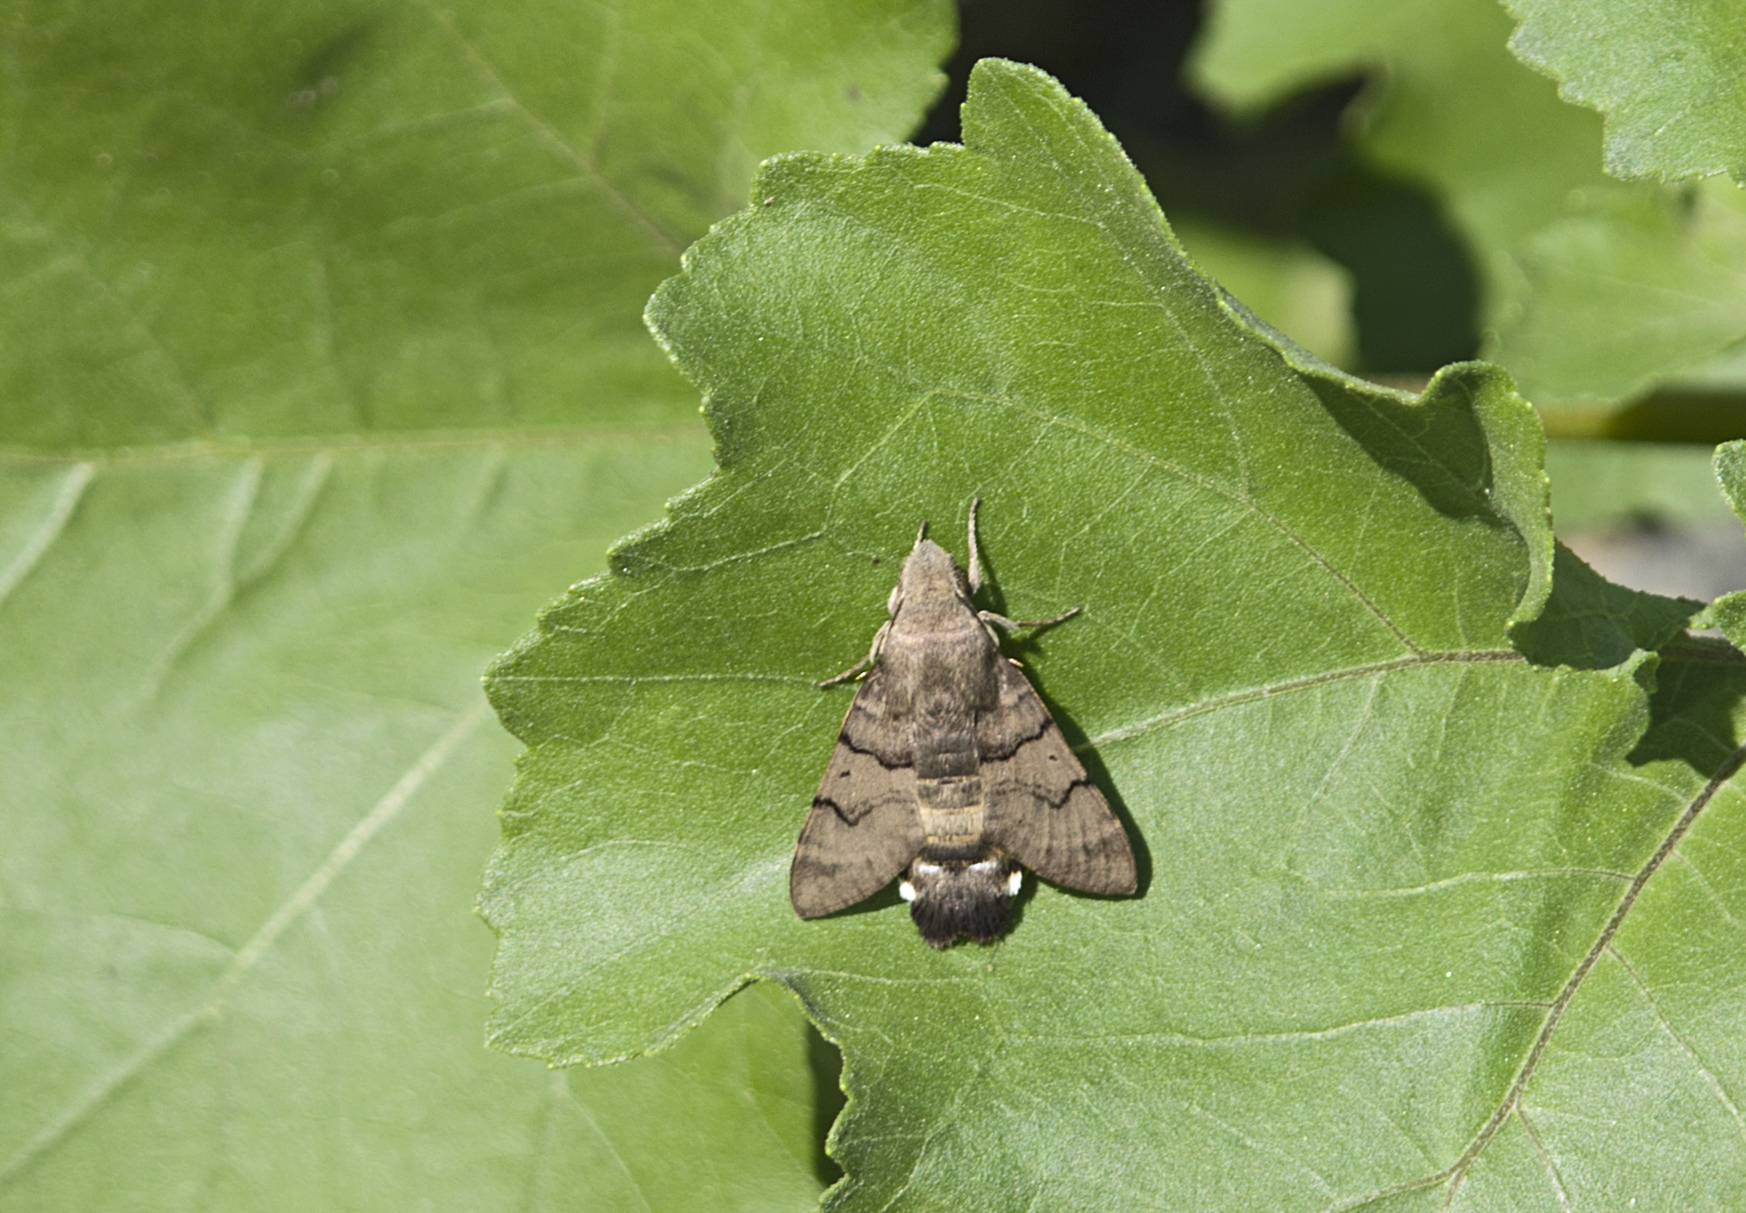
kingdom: Animalia
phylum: Arthropoda
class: Insecta
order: Lepidoptera
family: Sphingidae
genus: Macroglossum
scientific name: Macroglossum stellatarum
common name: Humming-bird hawk-moth
